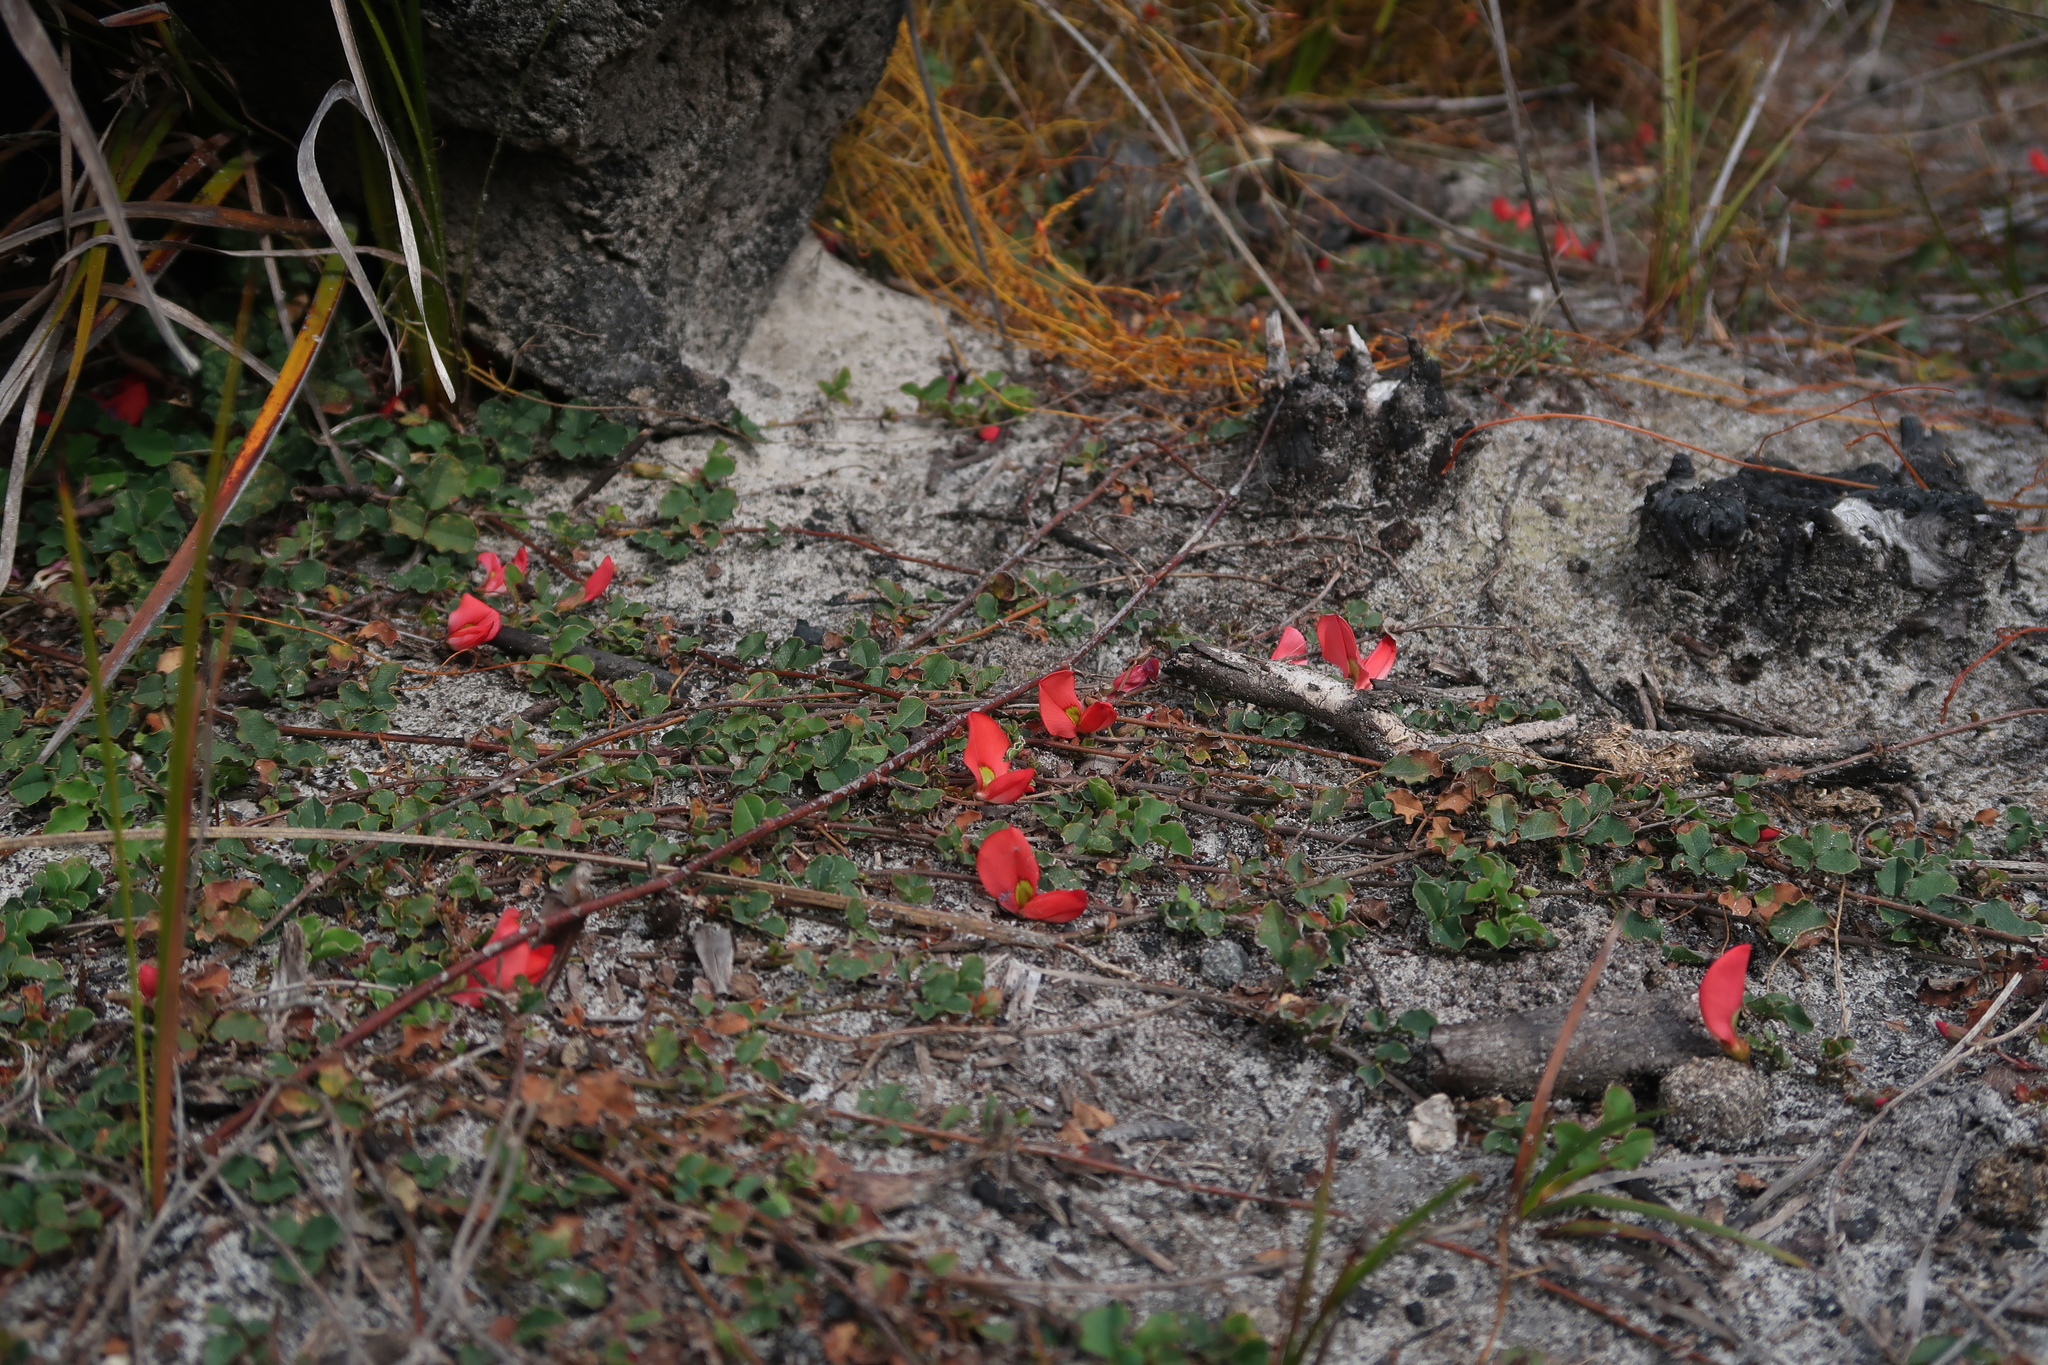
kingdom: Plantae
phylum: Tracheophyta
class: Magnoliopsida
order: Fabales
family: Fabaceae
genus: Kennedia
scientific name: Kennedia prostrata
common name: Running-postman
